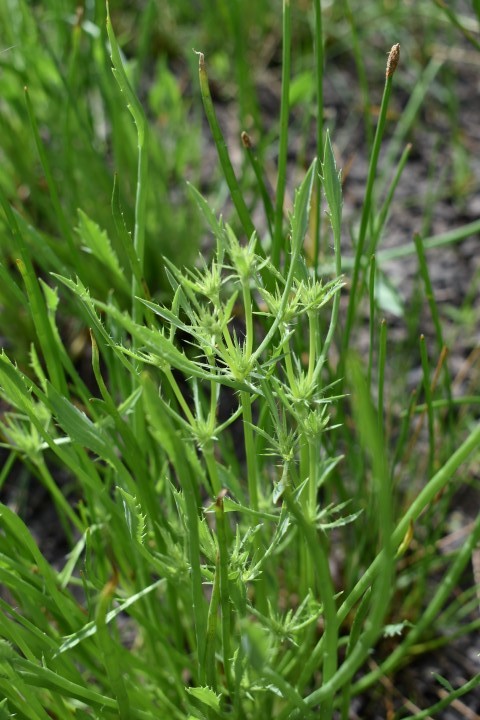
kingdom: Plantae
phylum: Tracheophyta
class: Magnoliopsida
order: Apiales
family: Apiaceae
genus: Eryngium
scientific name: Eryngium petiolatum
